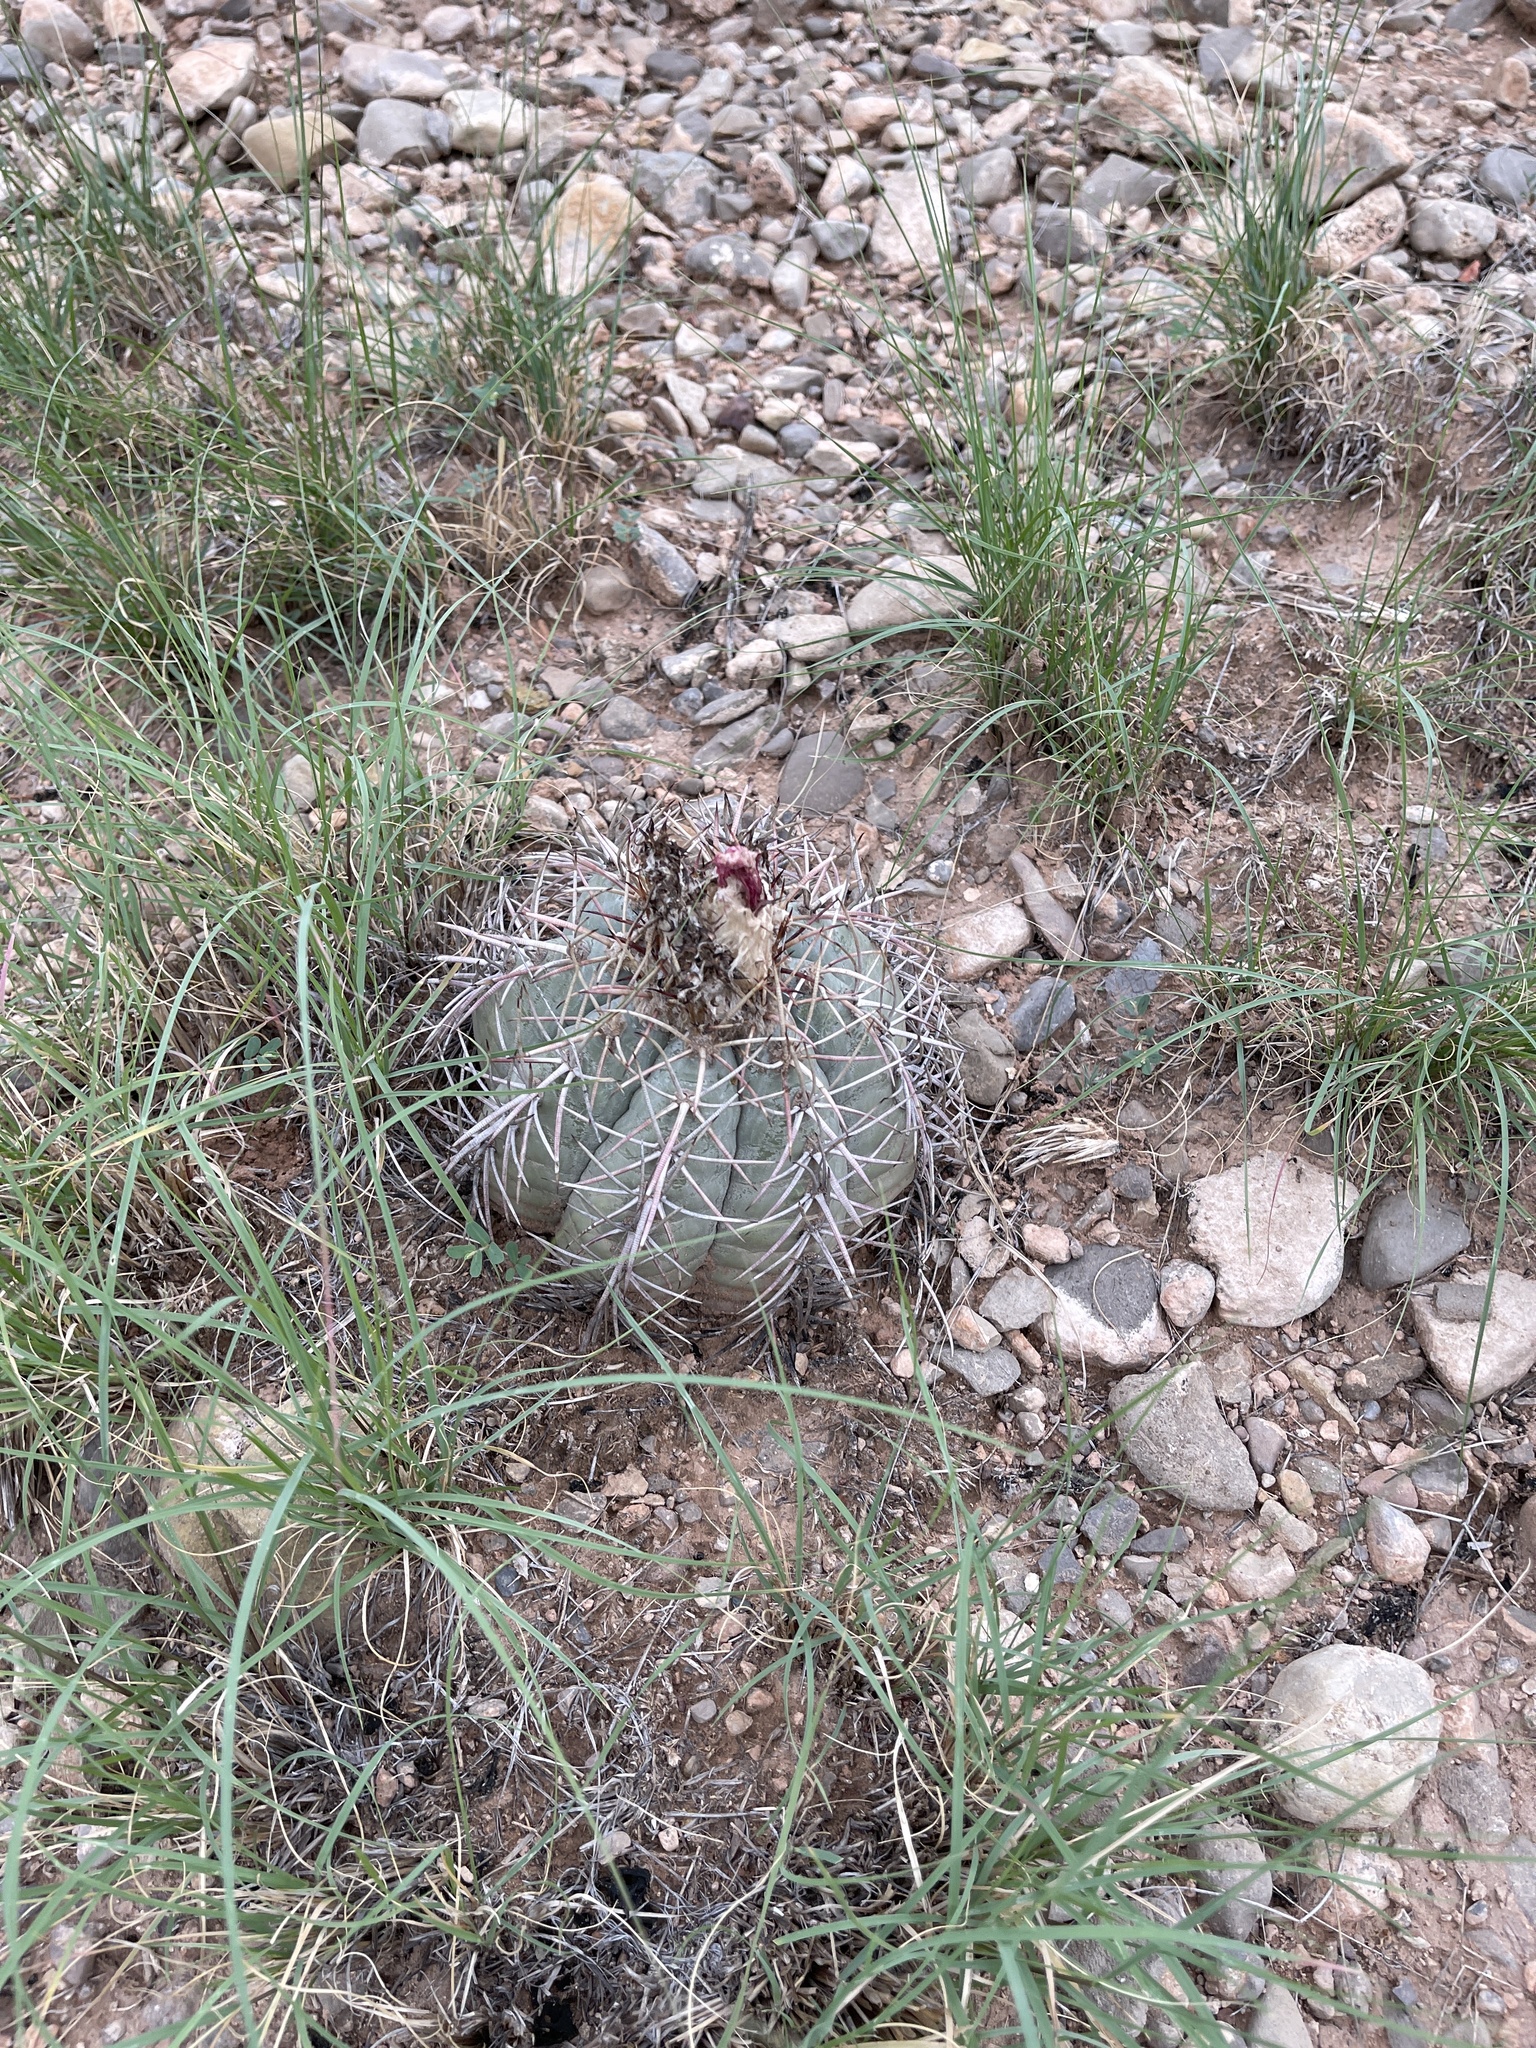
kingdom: Plantae
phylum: Tracheophyta
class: Magnoliopsida
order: Caryophyllales
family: Cactaceae
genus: Echinocactus
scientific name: Echinocactus horizonthalonius
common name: Devilshead
